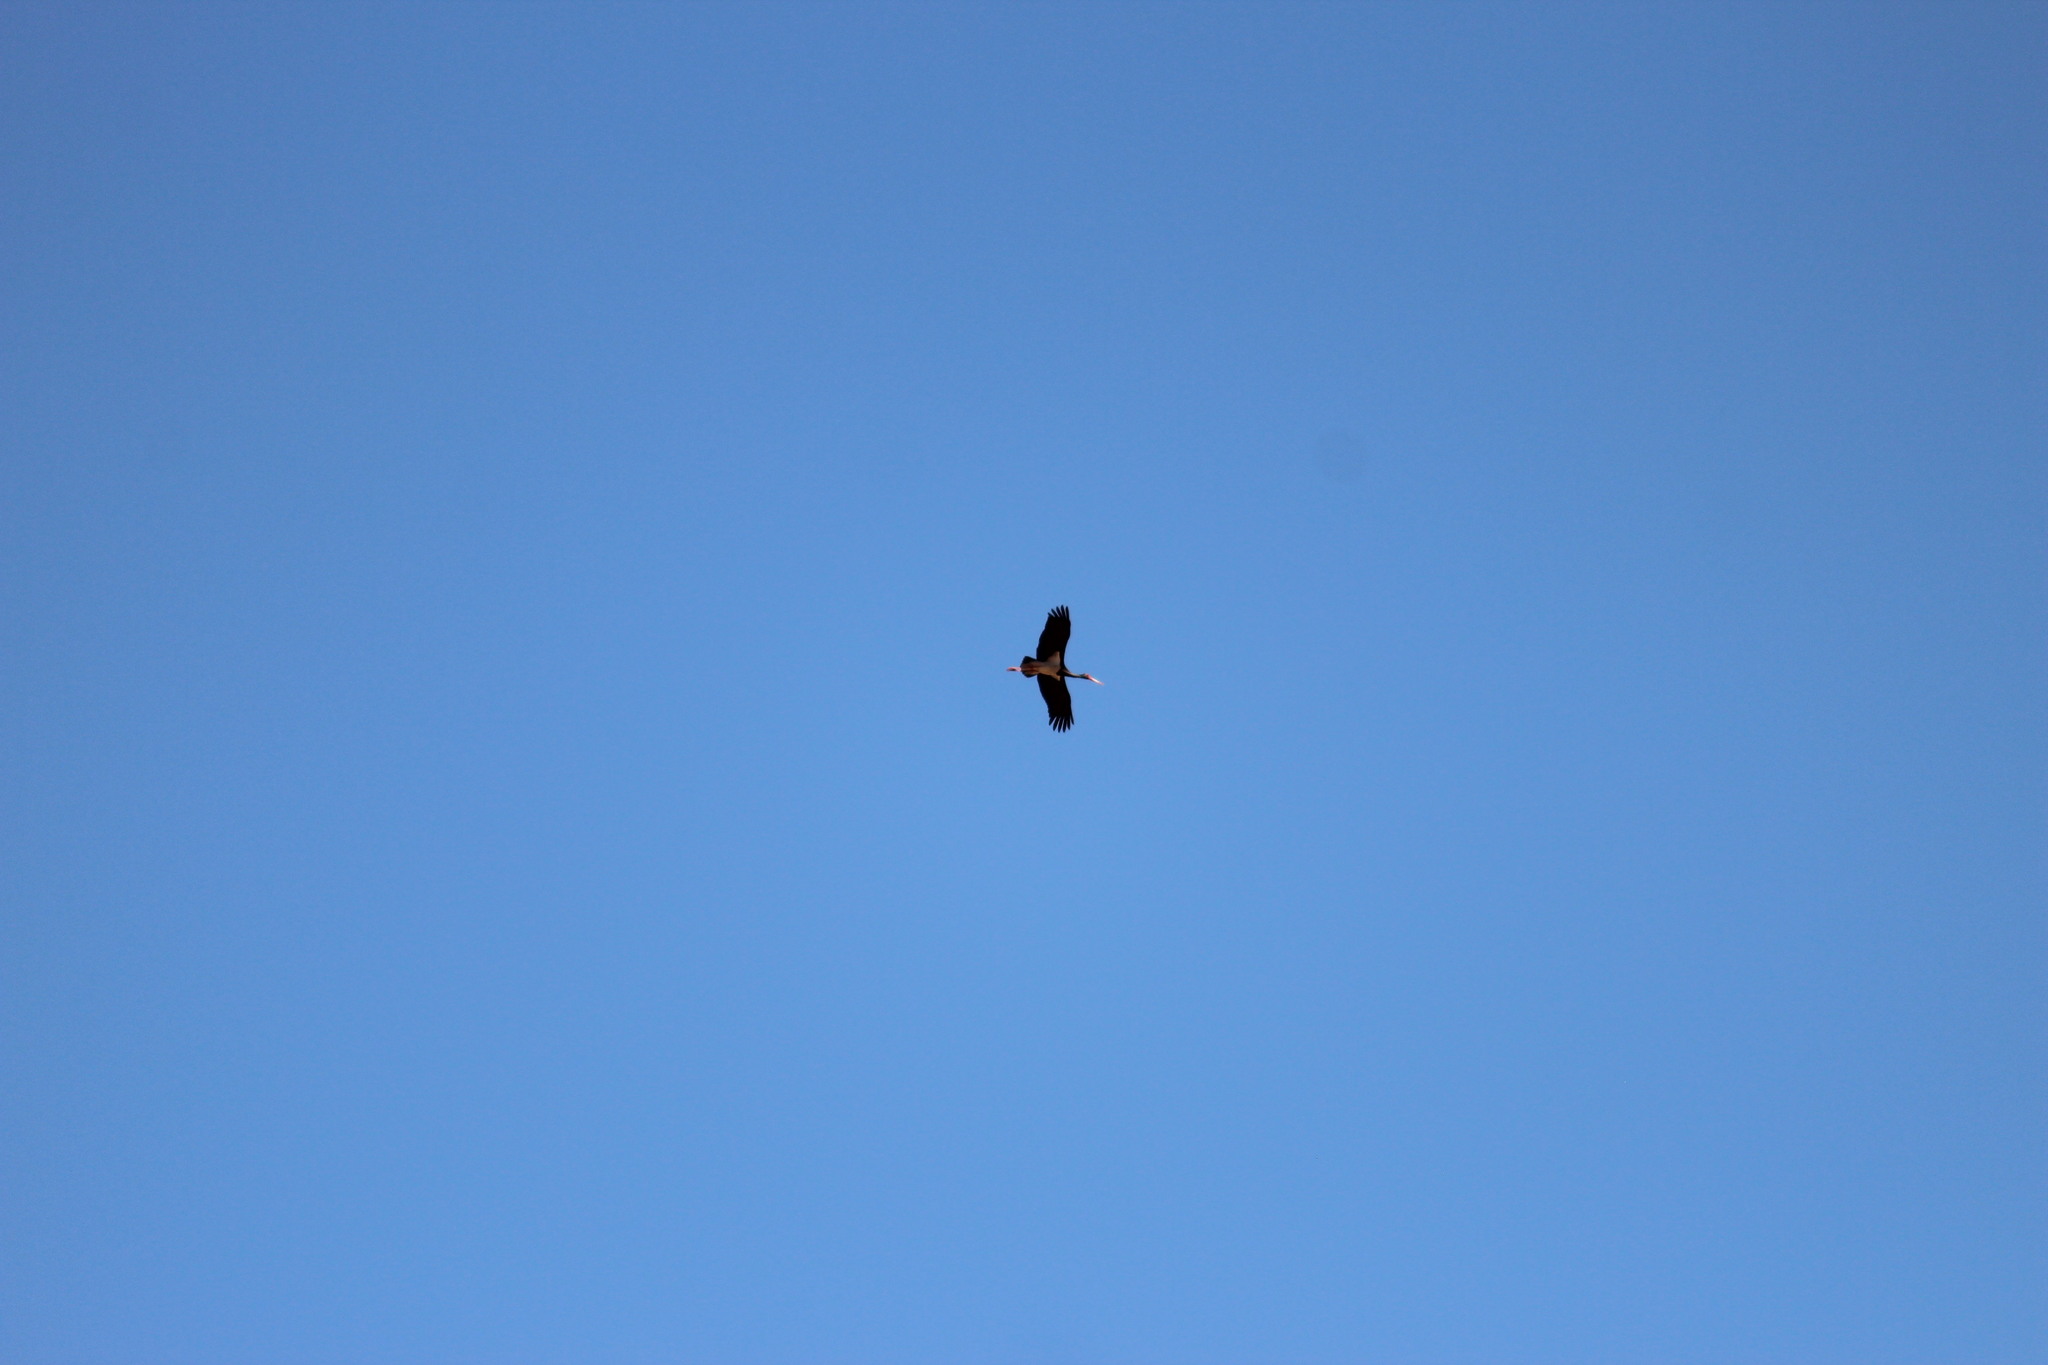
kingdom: Animalia
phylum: Chordata
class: Aves
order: Ciconiiformes
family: Ciconiidae
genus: Ciconia
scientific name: Ciconia nigra
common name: Black stork
